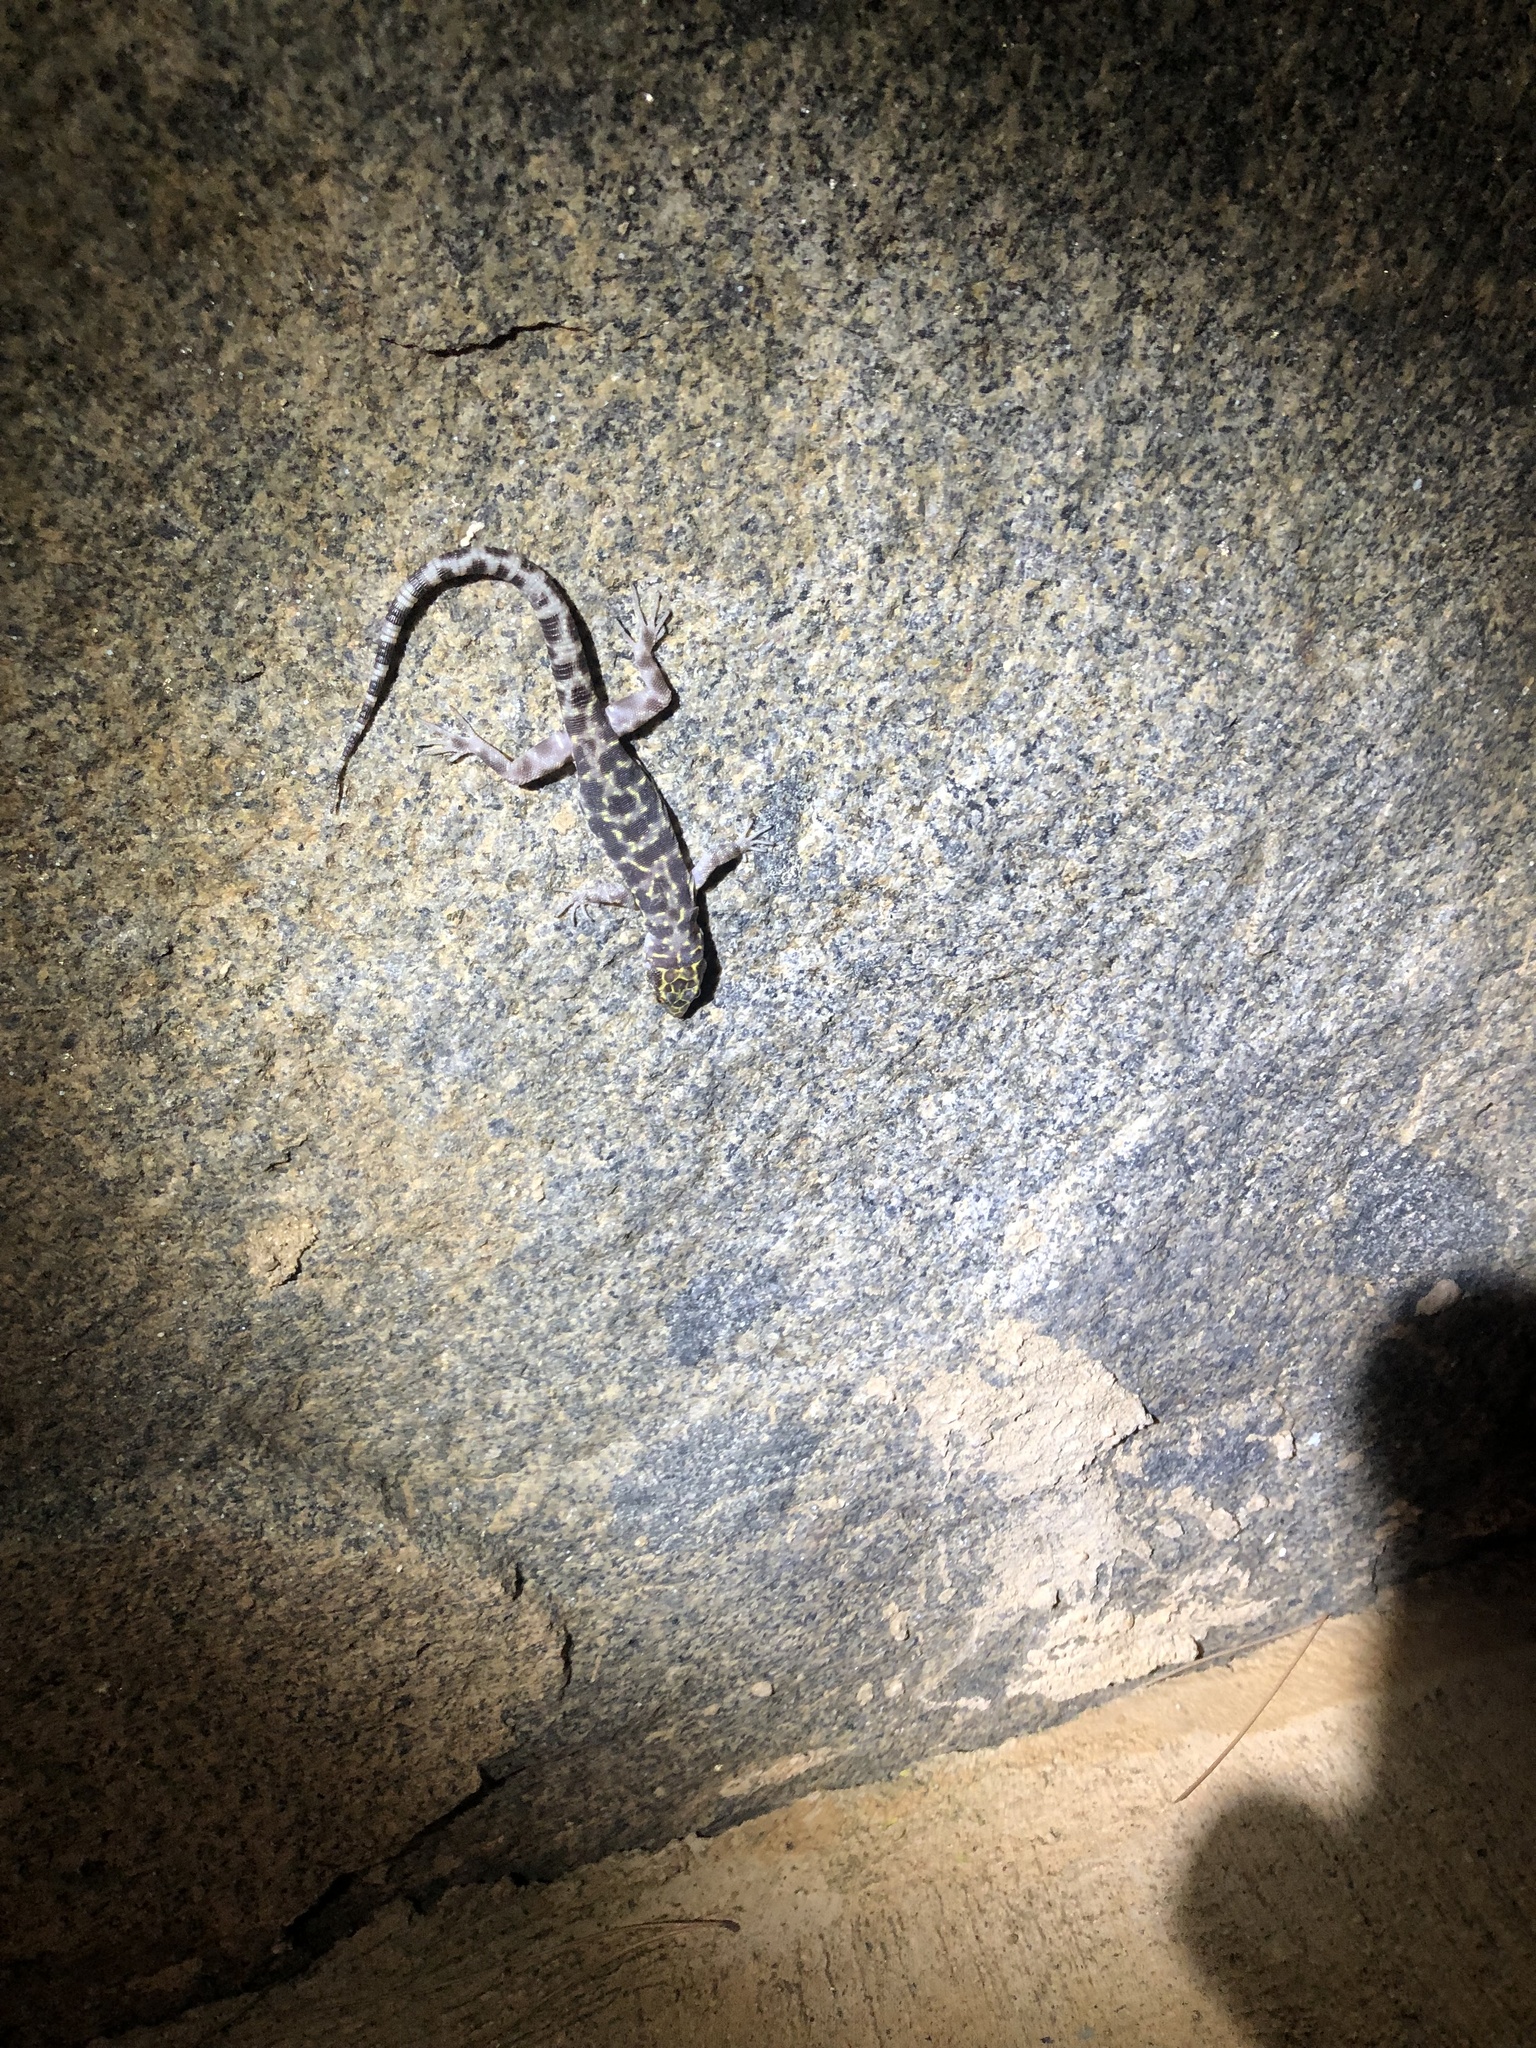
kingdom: Animalia
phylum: Chordata
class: Squamata
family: Xantusiidae
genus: Xantusia
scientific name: Xantusia henshawi
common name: Granite night lizard
